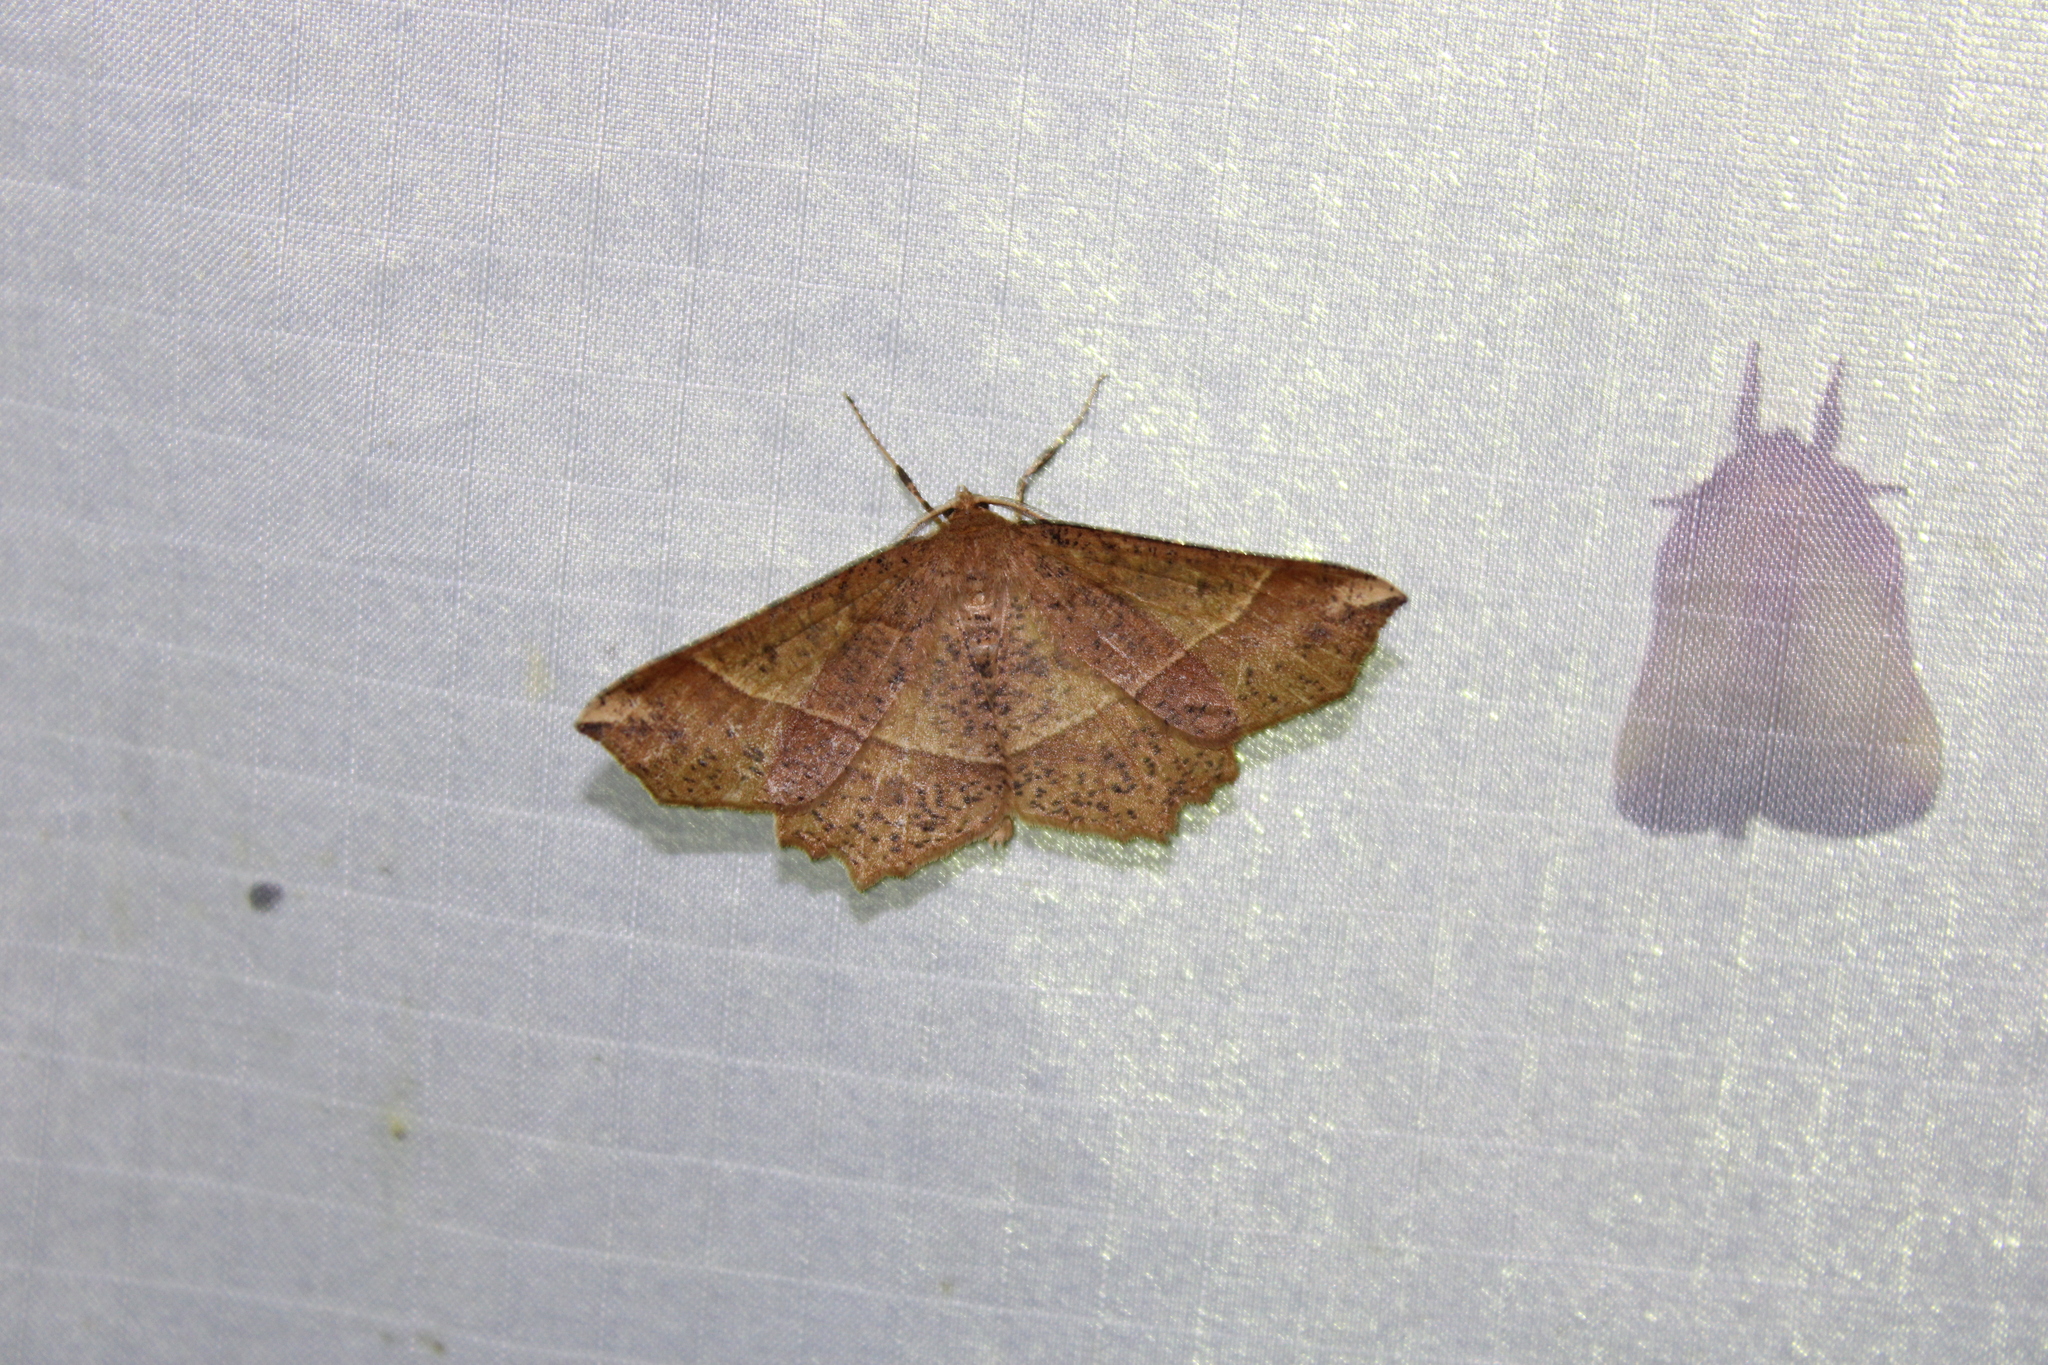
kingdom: Animalia
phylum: Arthropoda
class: Insecta
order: Lepidoptera
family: Geometridae
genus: Euchlaena
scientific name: Euchlaena tigrinaria
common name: Mottled euchlaena moth
